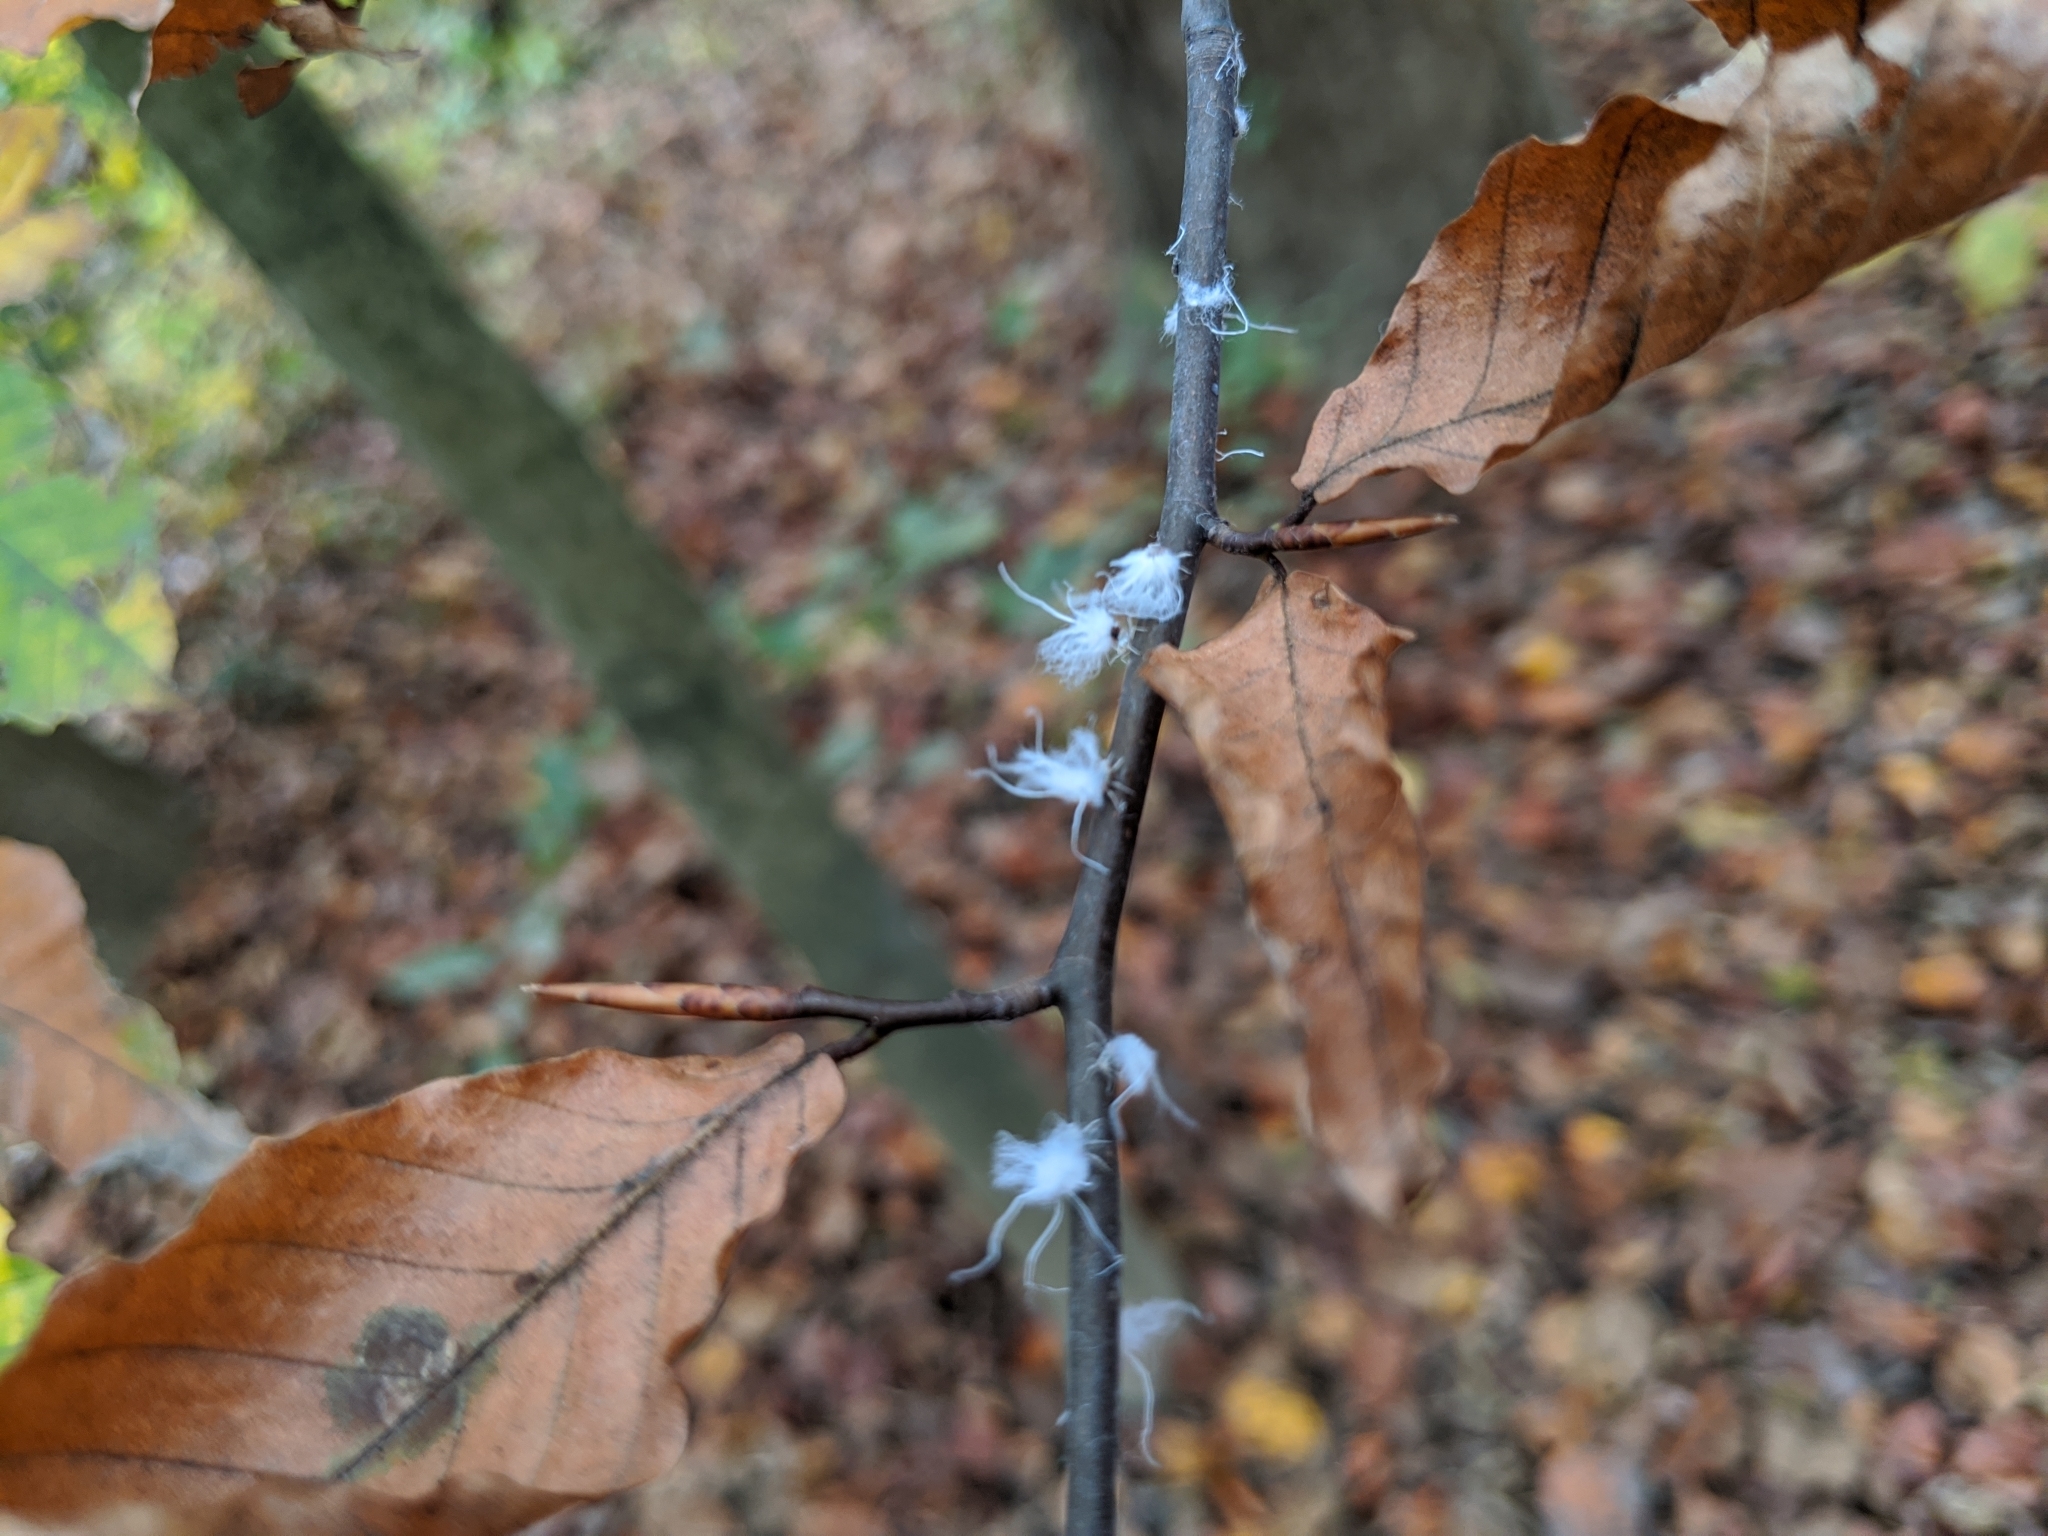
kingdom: Animalia
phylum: Arthropoda
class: Insecta
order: Hemiptera
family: Aphididae
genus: Grylloprociphilus
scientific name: Grylloprociphilus imbricator
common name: Beech blight aphid
